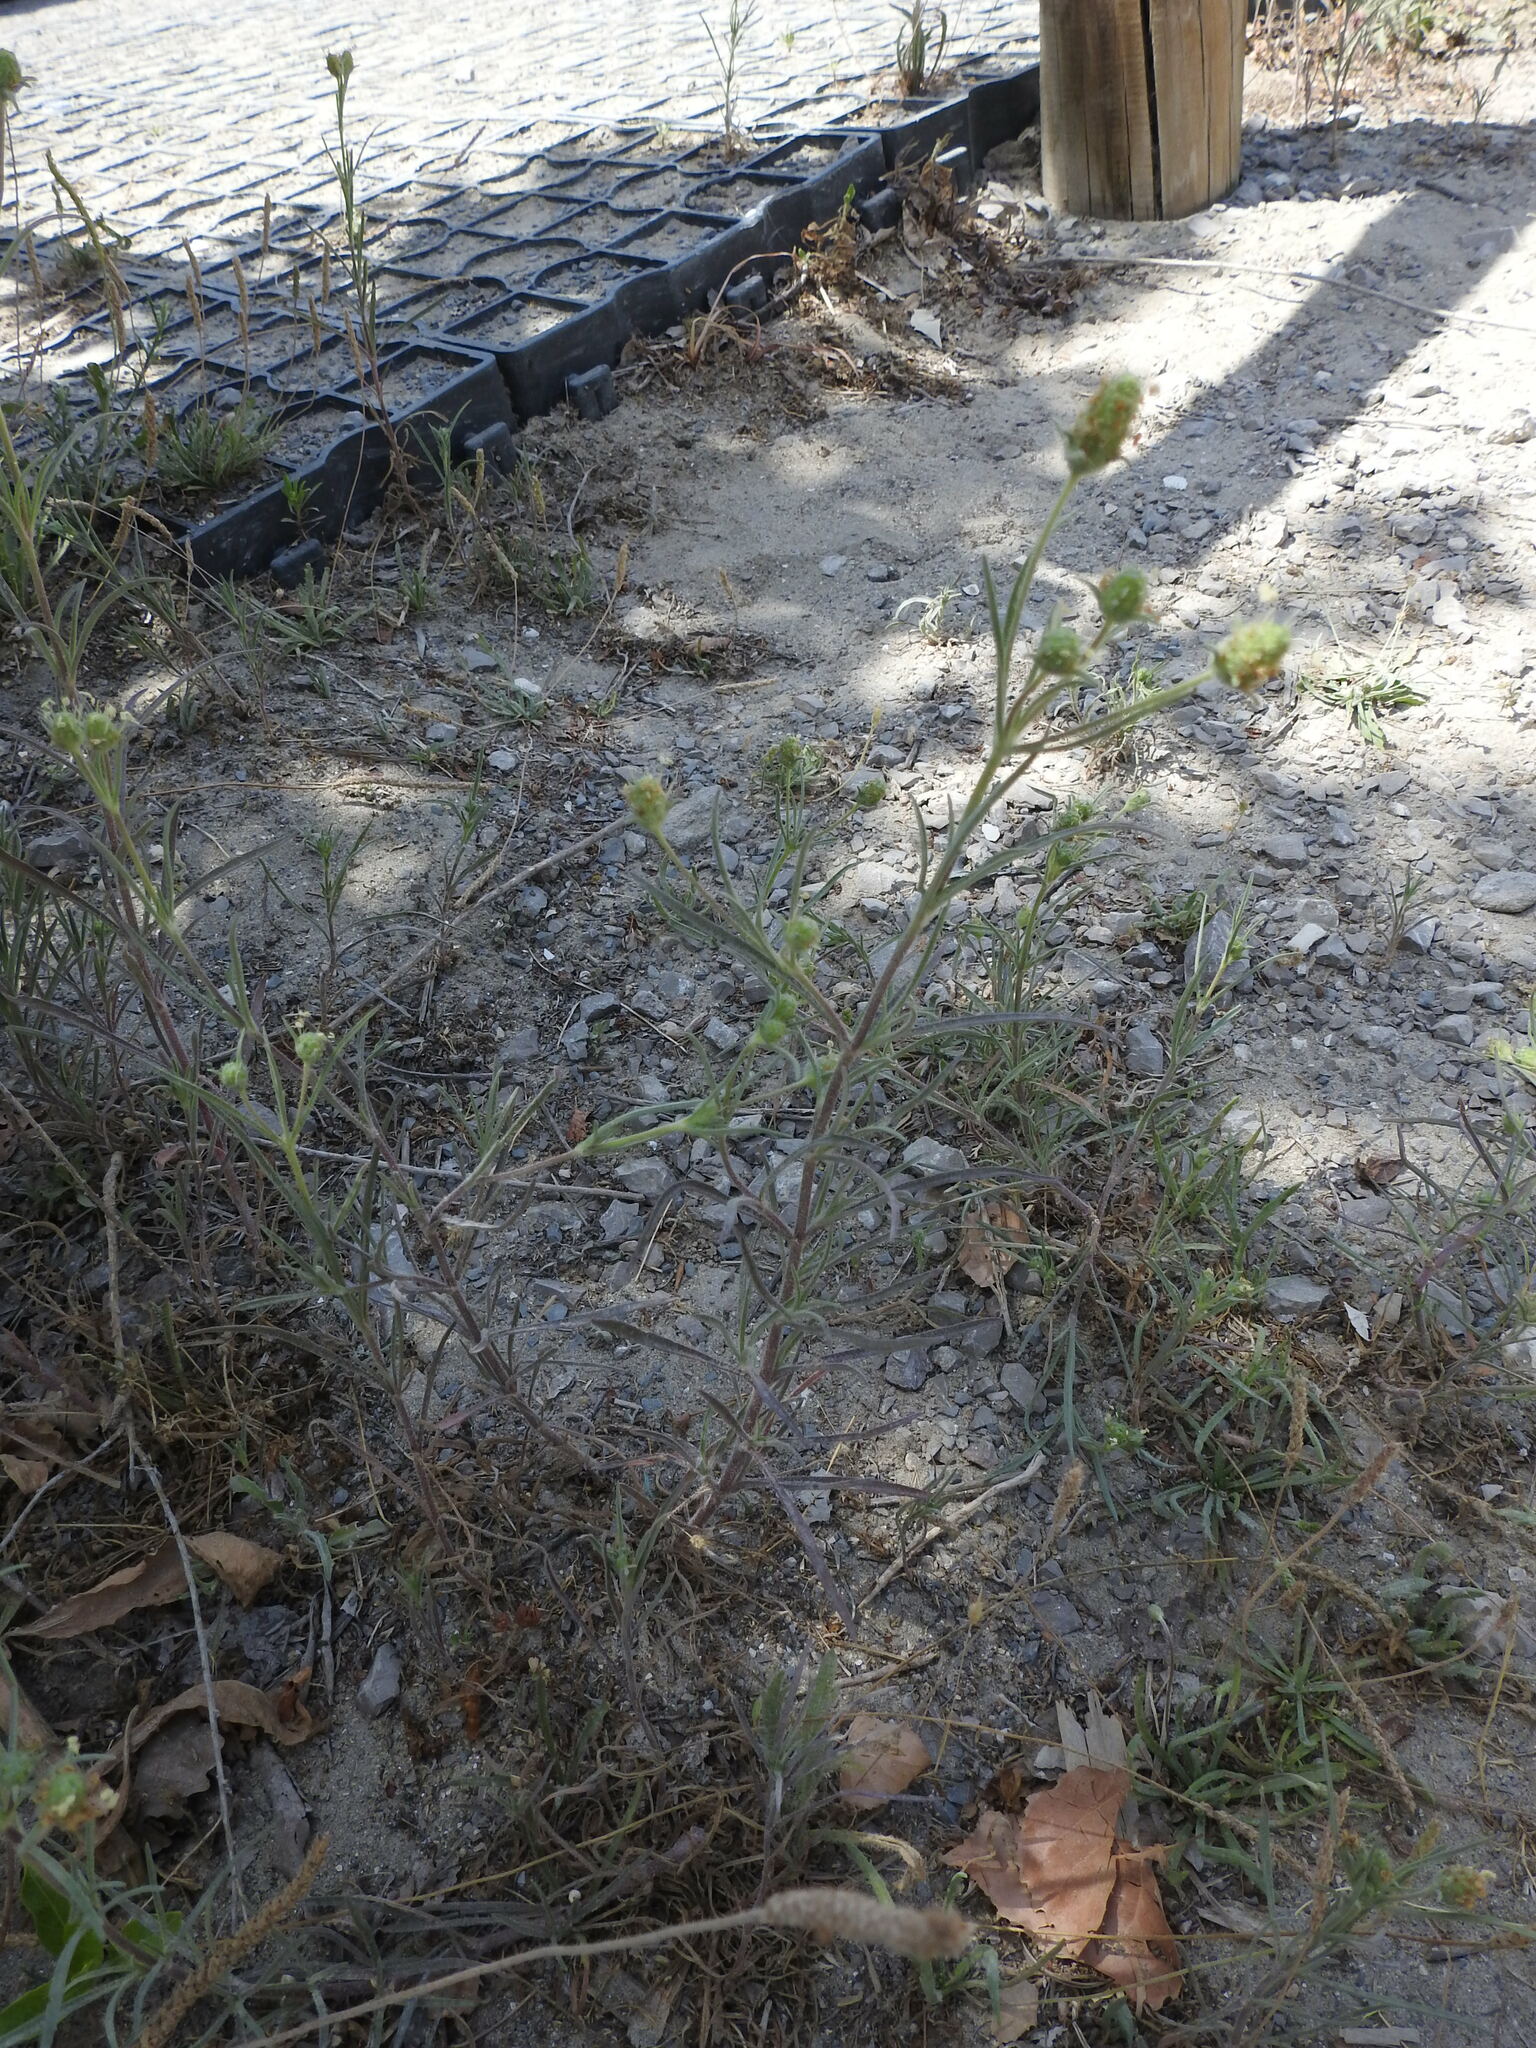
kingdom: Plantae
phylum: Tracheophyta
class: Magnoliopsida
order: Lamiales
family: Plantaginaceae
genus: Plantago
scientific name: Plantago arenaria
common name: Branched plantain
